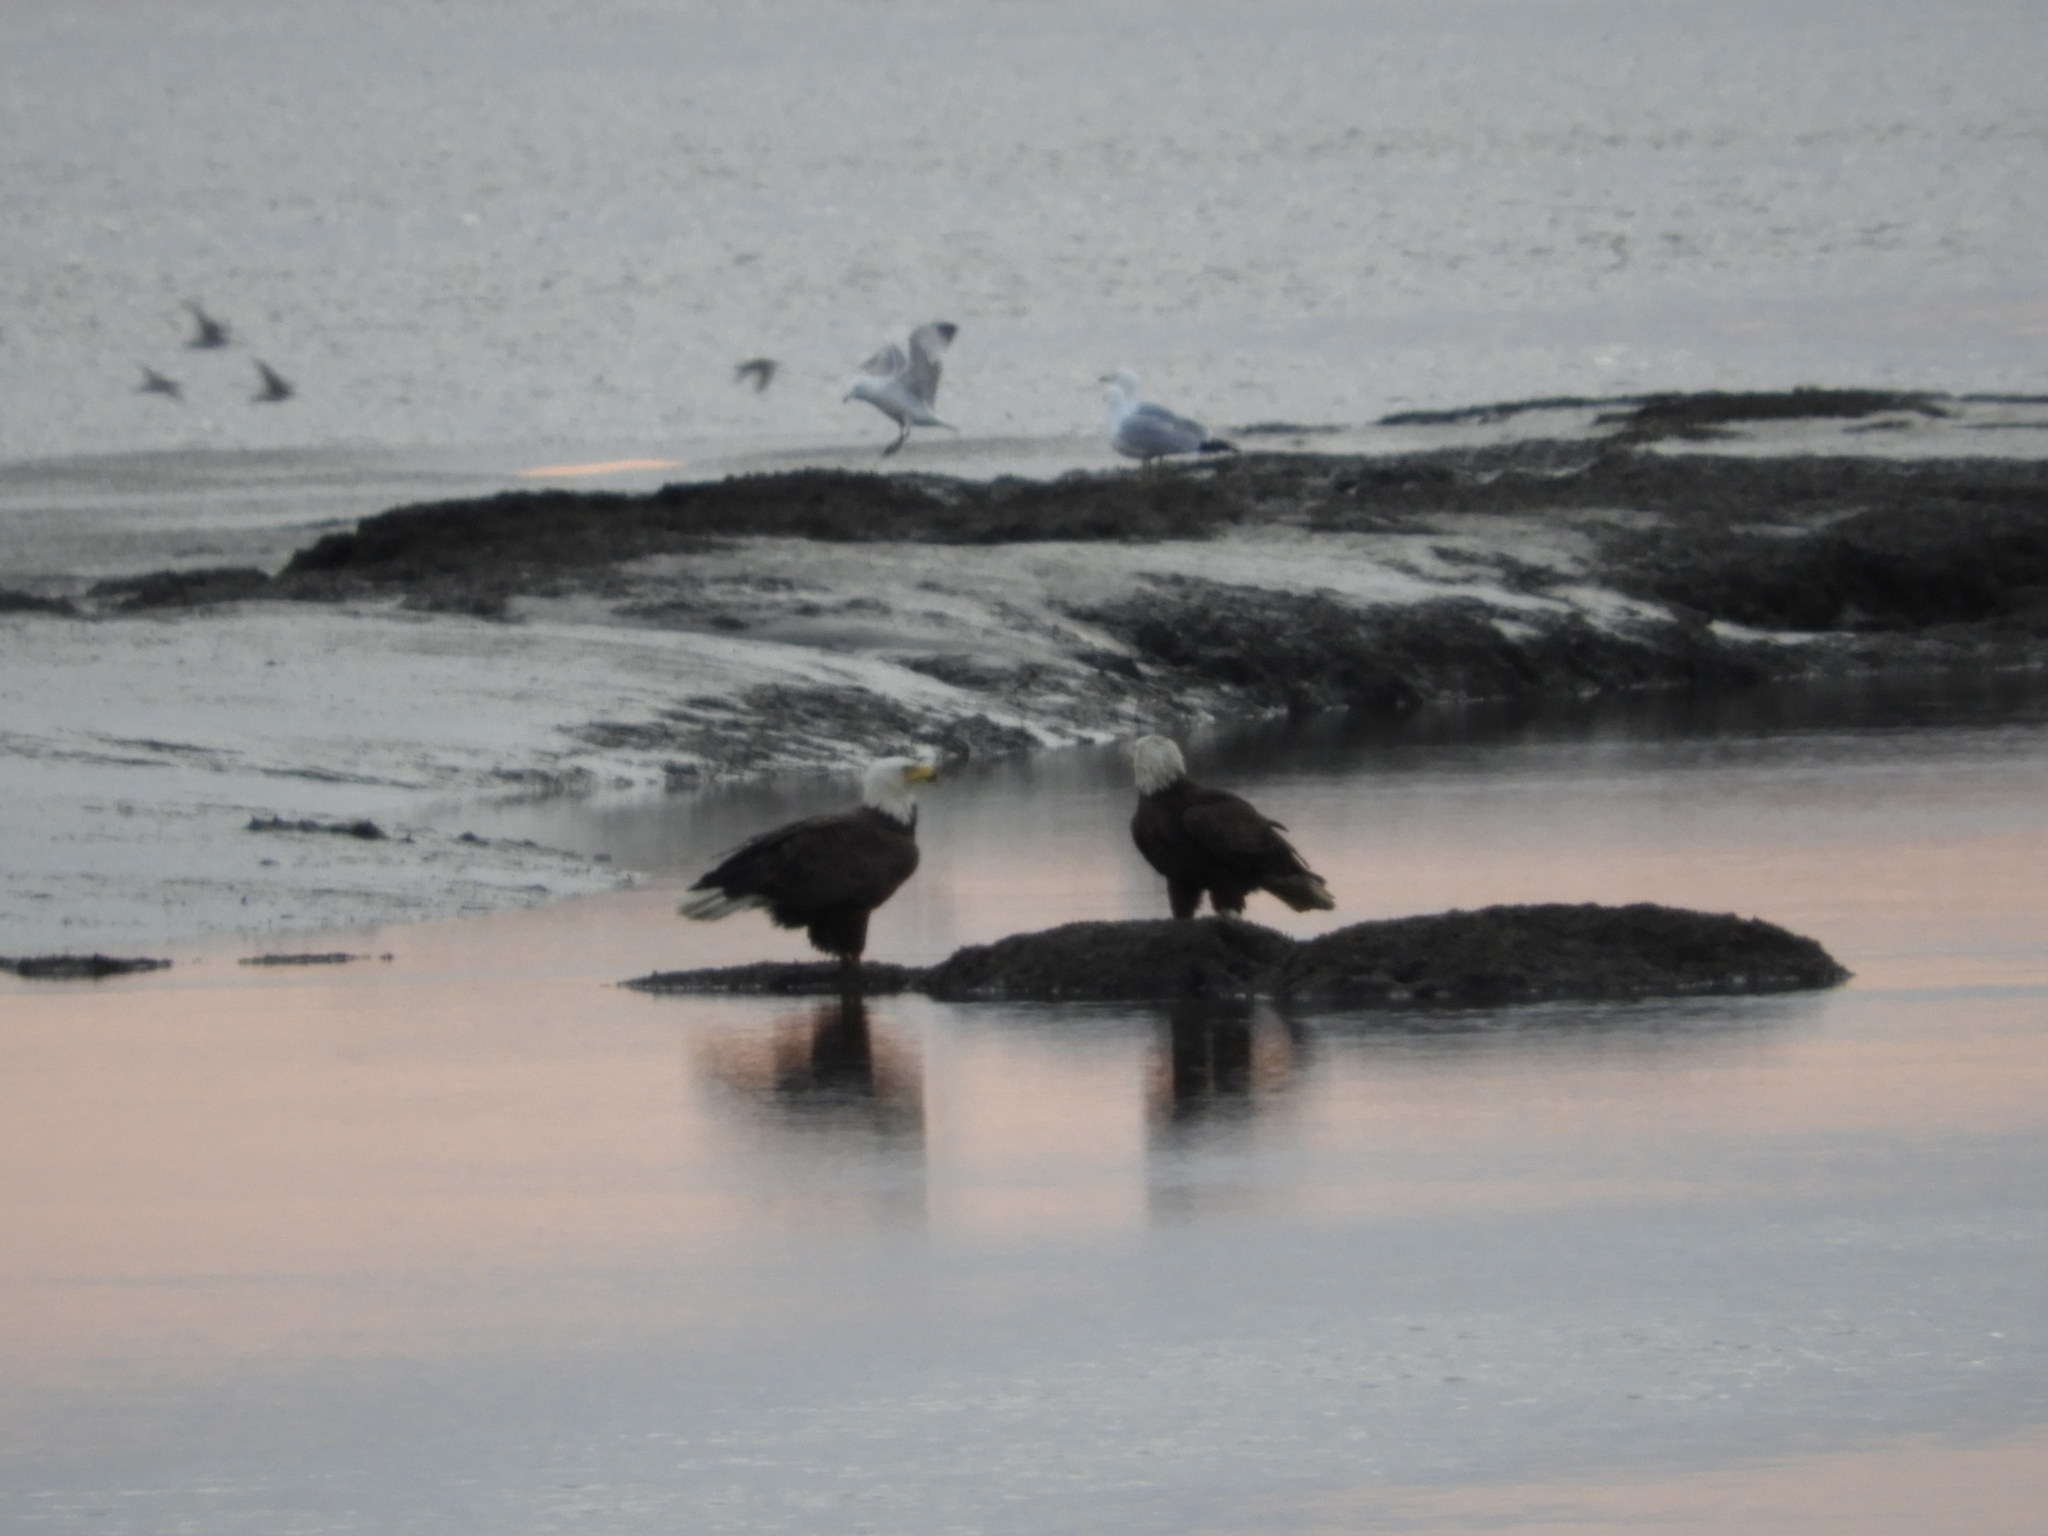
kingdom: Animalia
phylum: Chordata
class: Aves
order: Accipitriformes
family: Accipitridae
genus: Haliaeetus
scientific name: Haliaeetus leucocephalus
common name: Bald eagle
